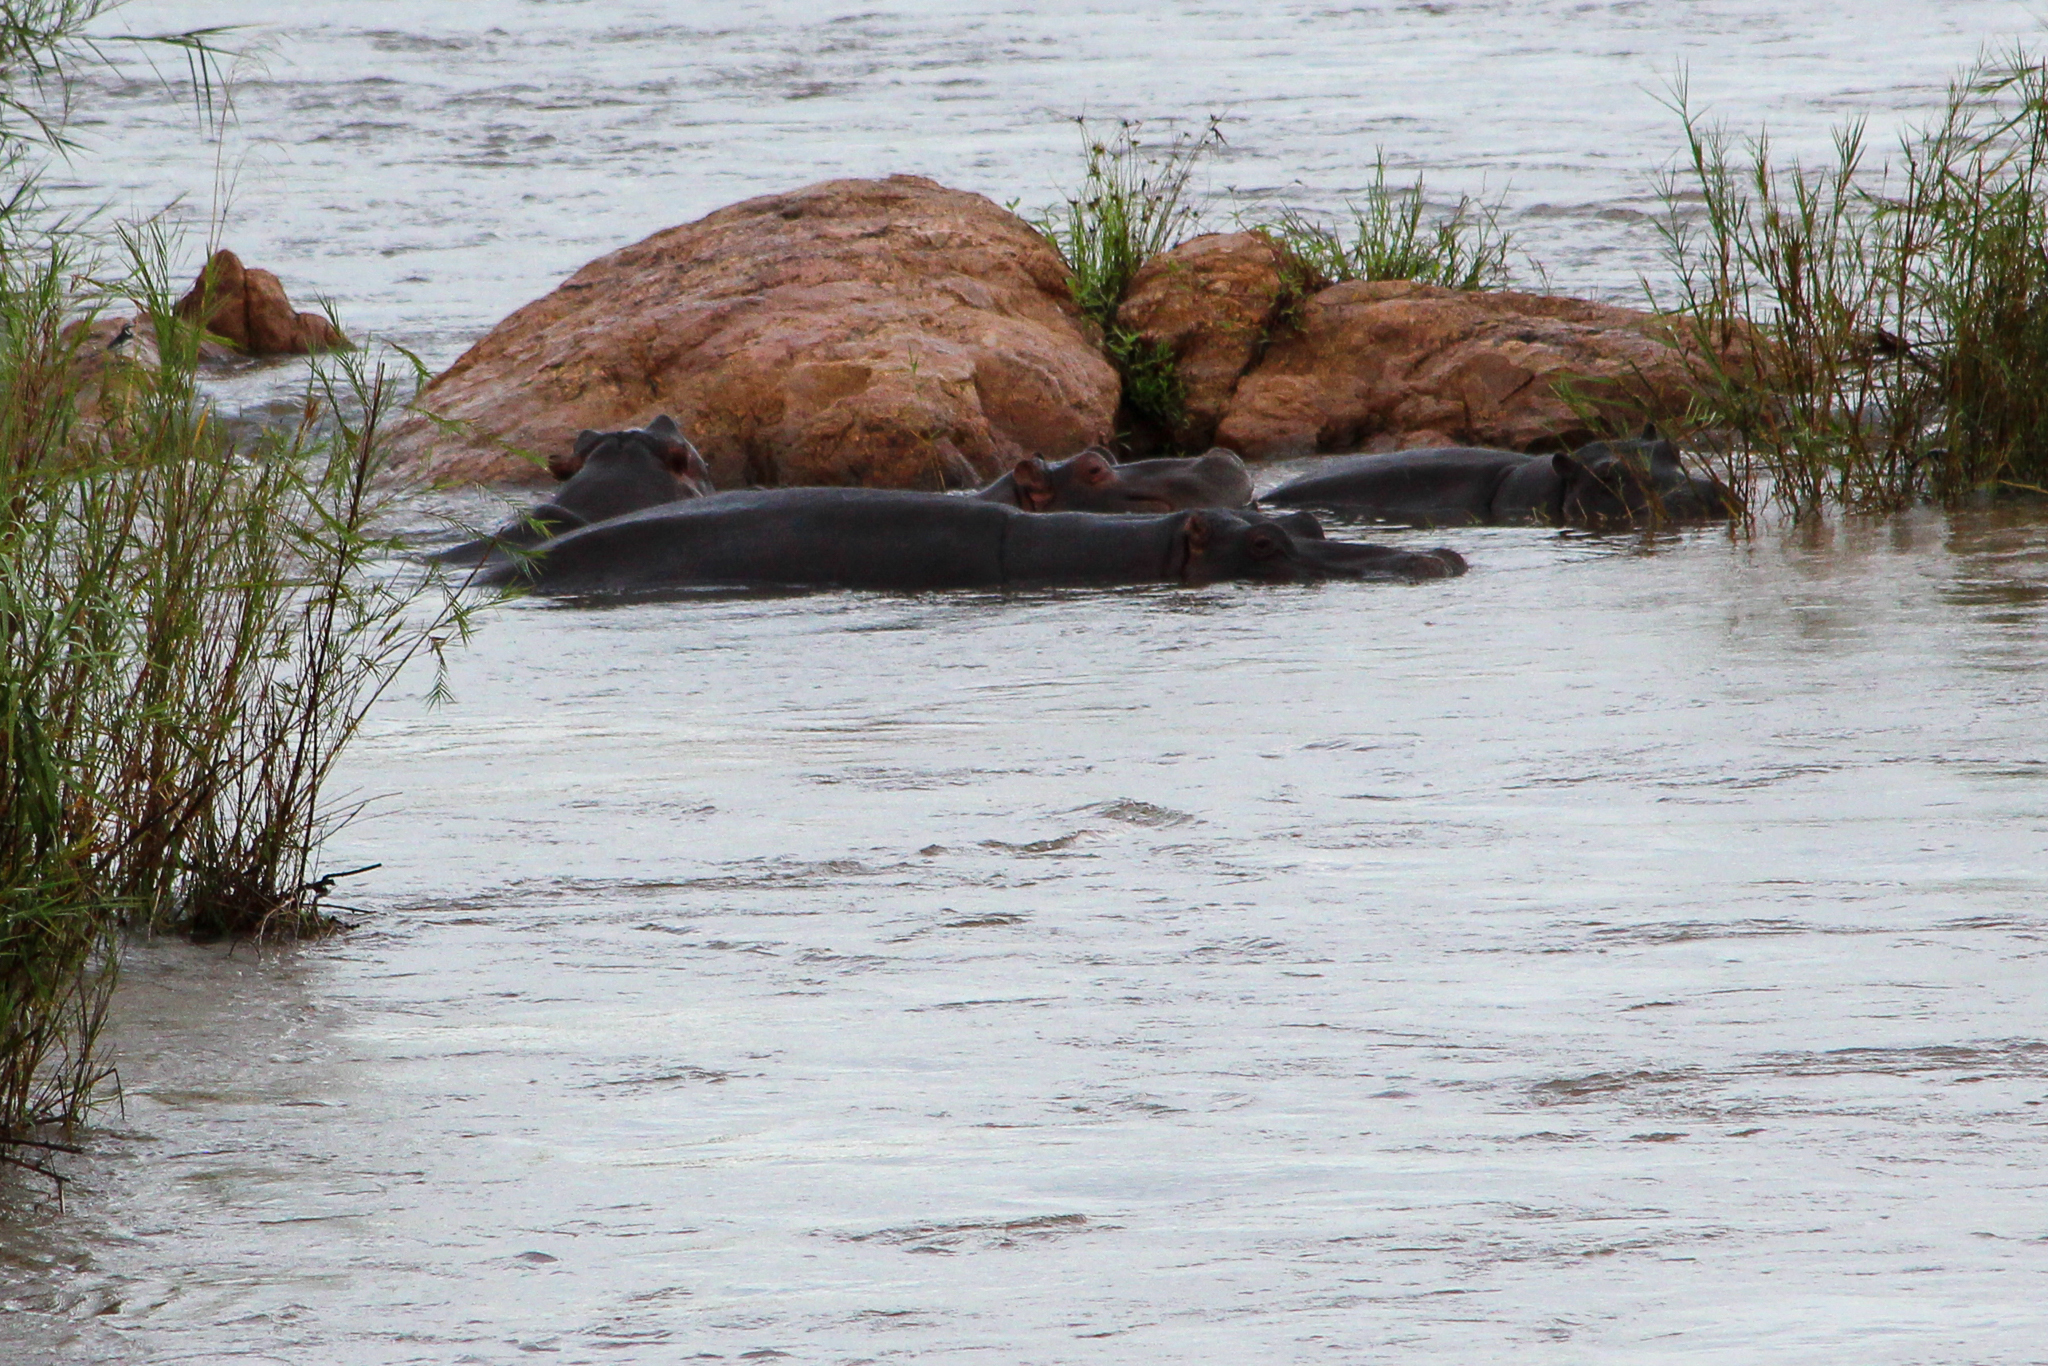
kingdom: Animalia
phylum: Chordata
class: Mammalia
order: Artiodactyla
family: Hippopotamidae
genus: Hippopotamus
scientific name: Hippopotamus amphibius
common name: Common hippopotamus
